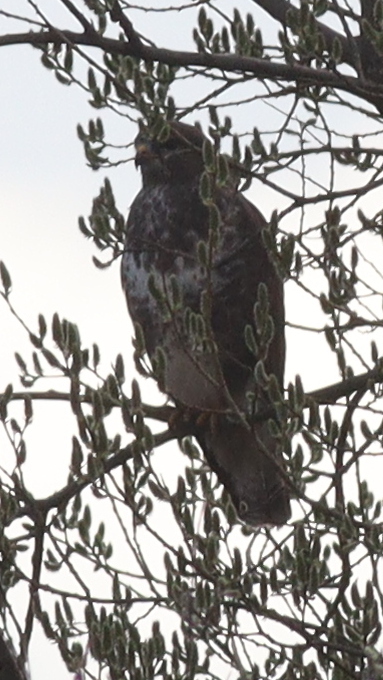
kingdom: Animalia
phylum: Chordata
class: Aves
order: Accipitriformes
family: Accipitridae
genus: Buteo
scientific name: Buteo buteo
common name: Common buzzard
